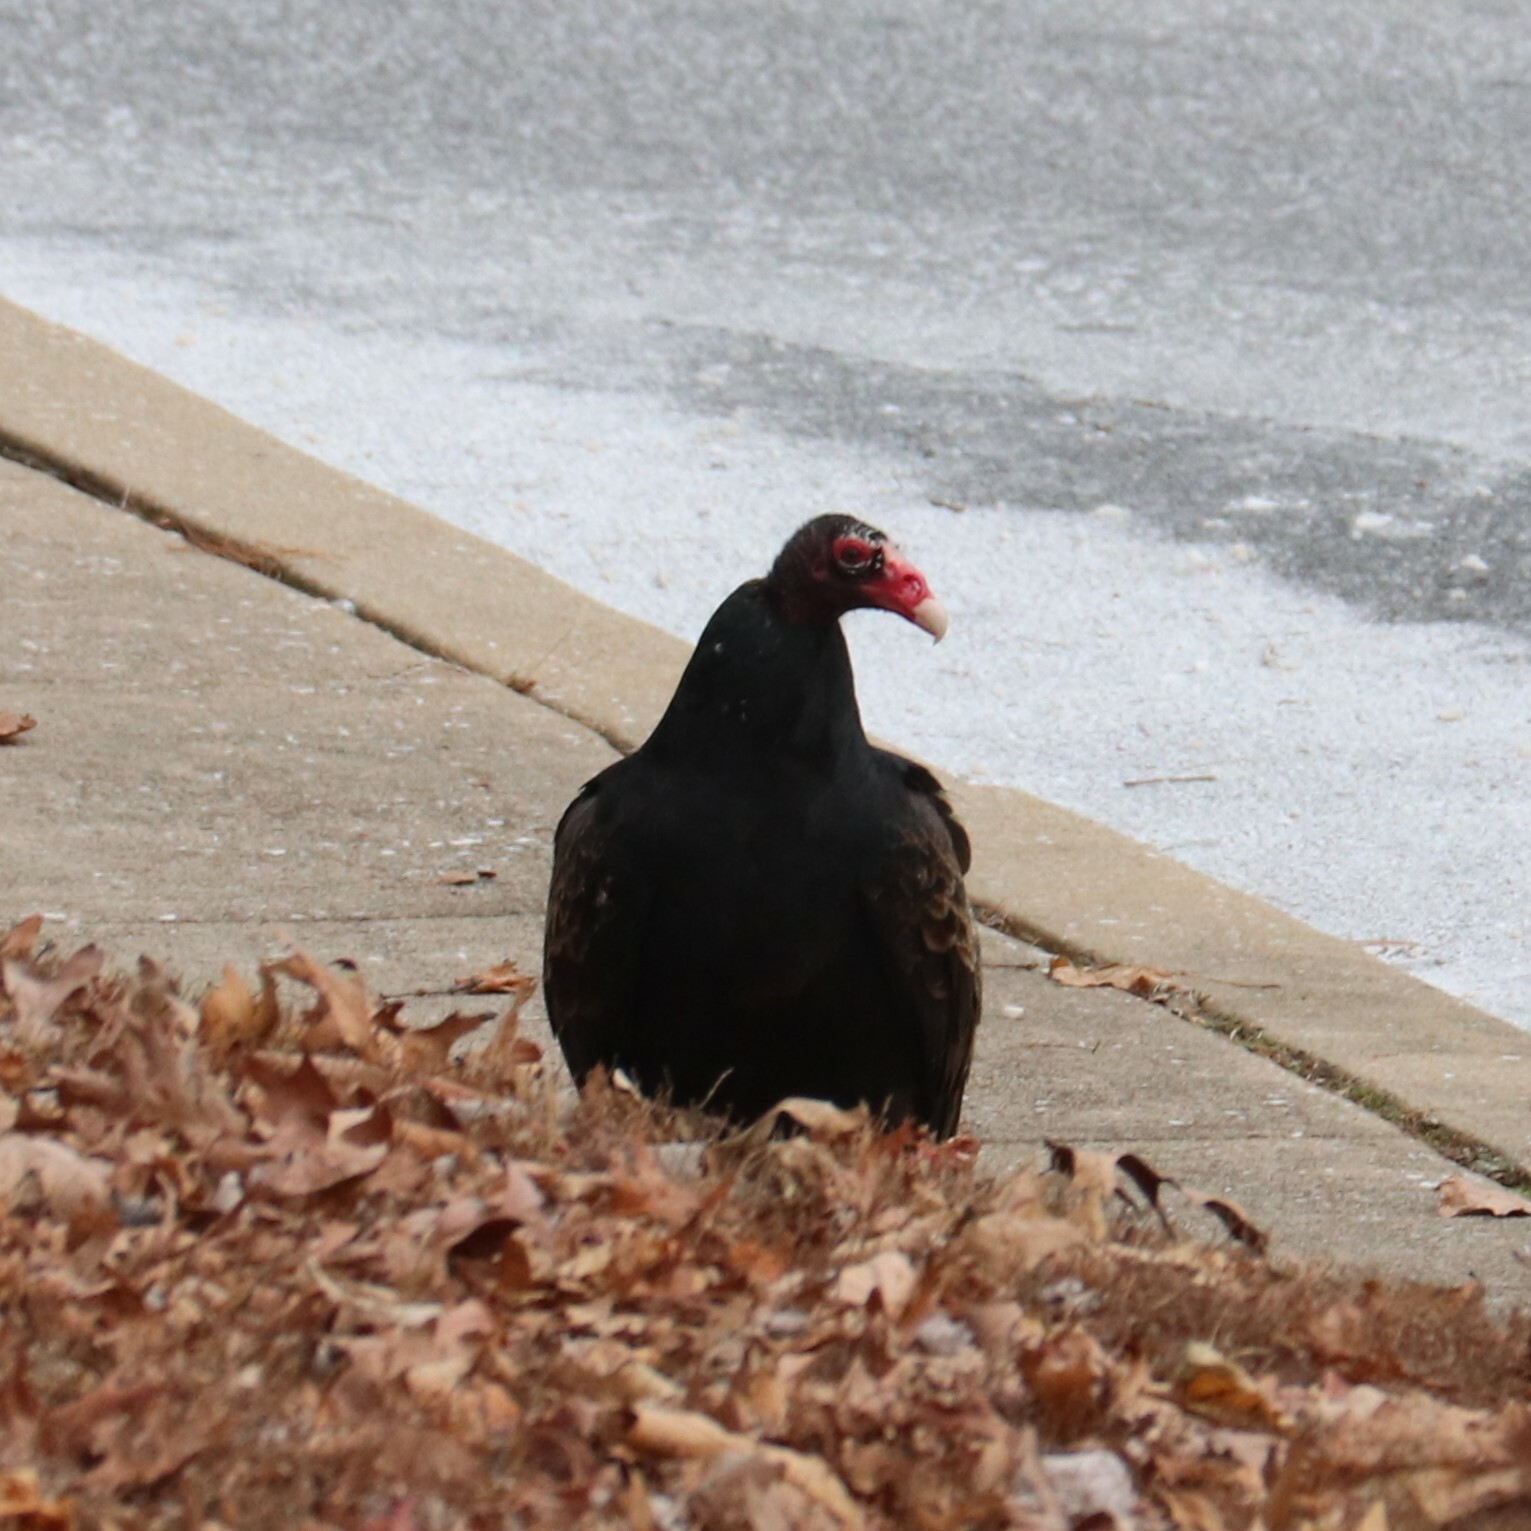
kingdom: Animalia
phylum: Chordata
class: Aves
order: Accipitriformes
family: Cathartidae
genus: Cathartes
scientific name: Cathartes aura
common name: Turkey vulture
